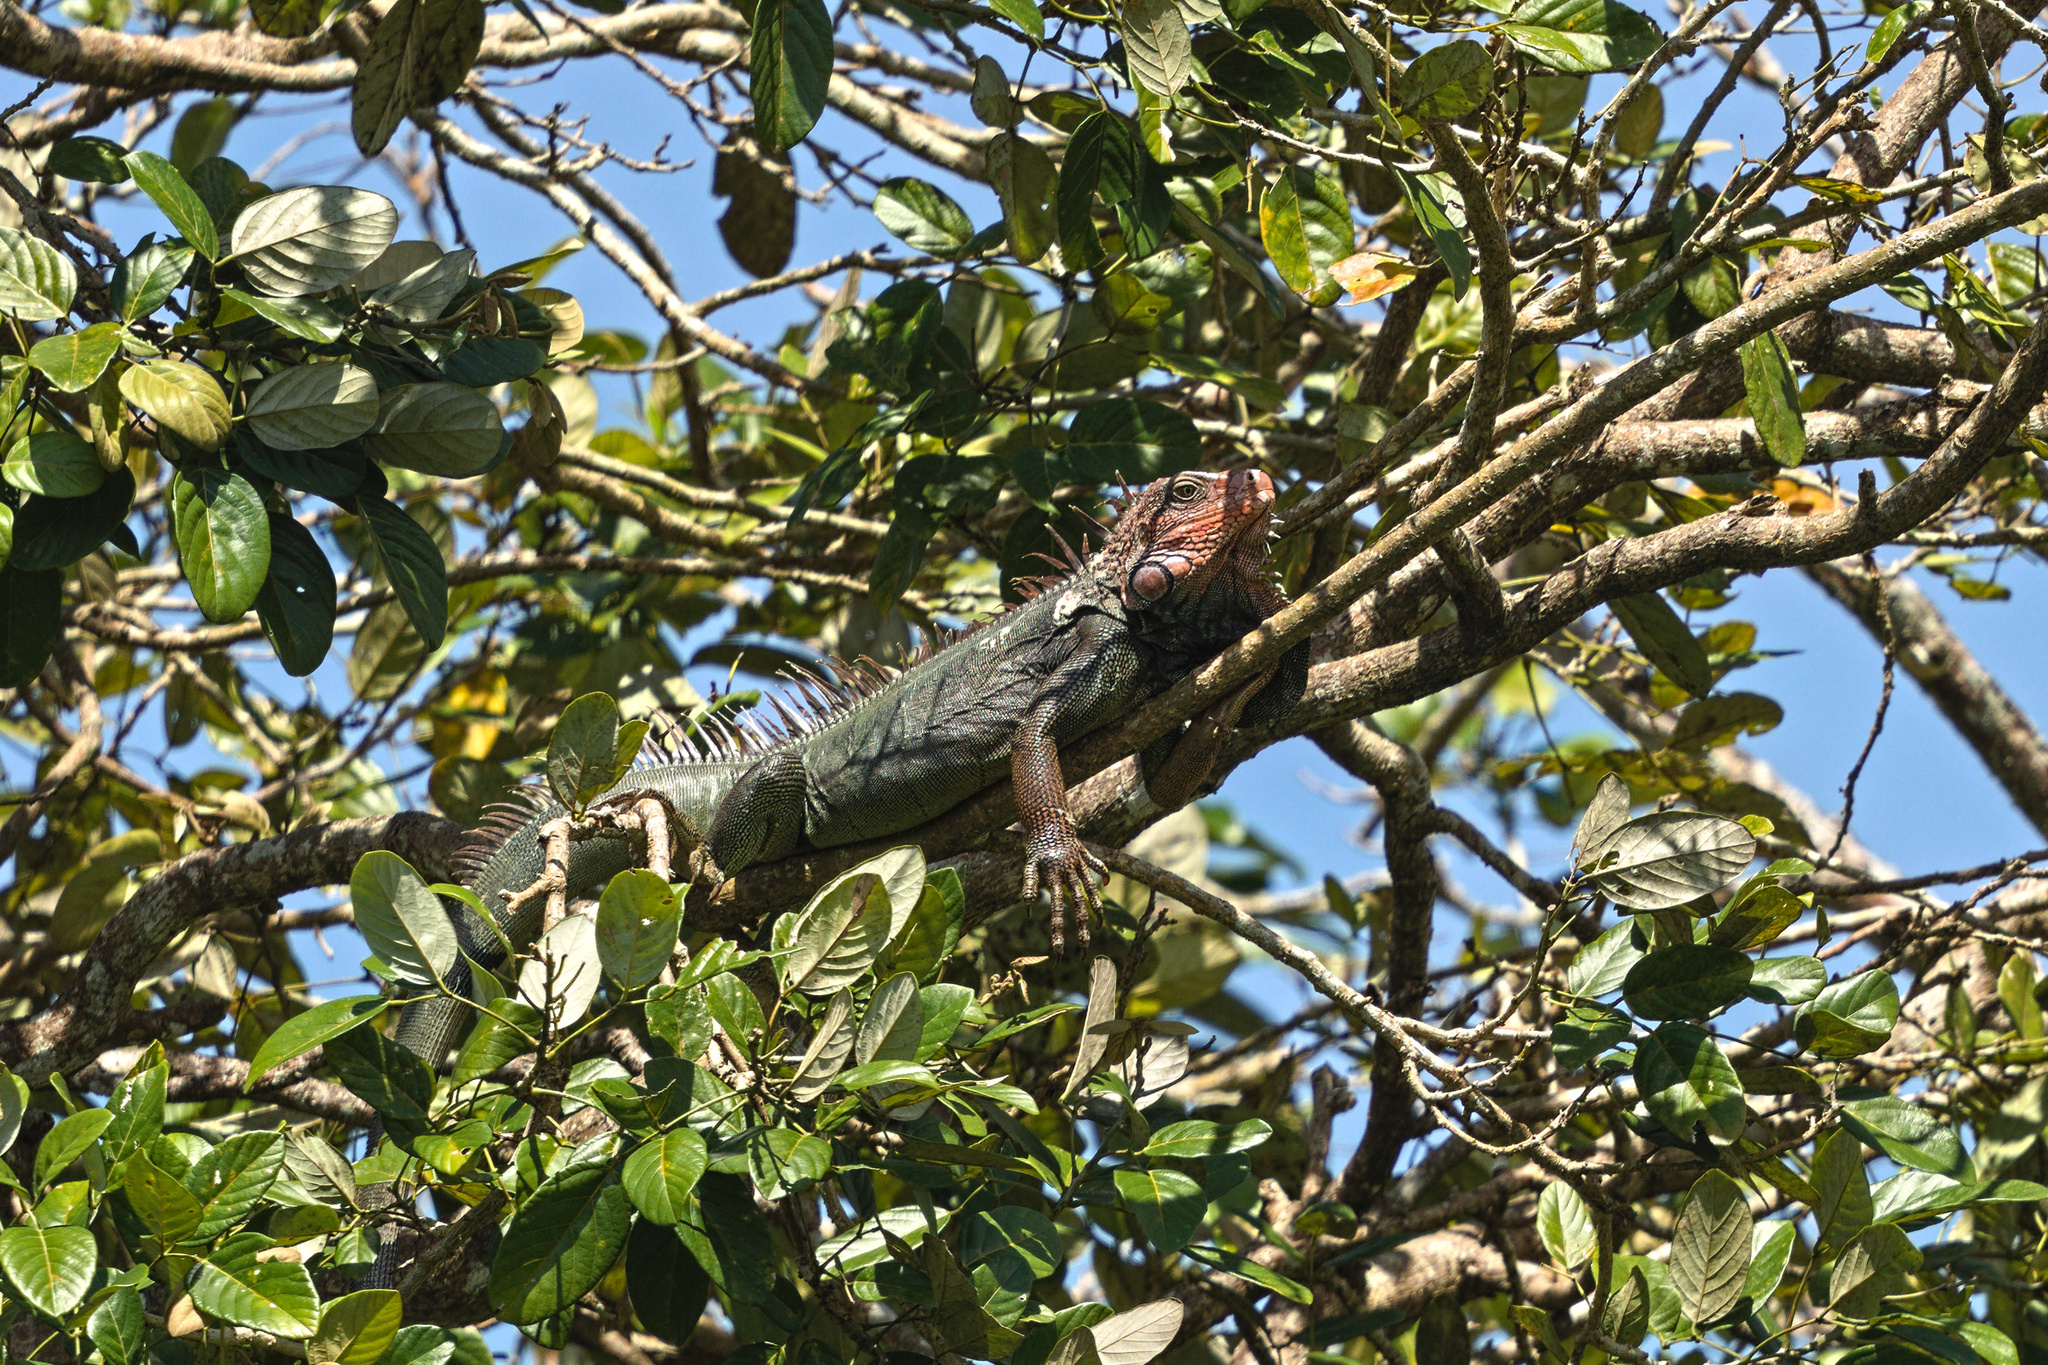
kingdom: Animalia
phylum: Chordata
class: Squamata
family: Iguanidae
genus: Iguana
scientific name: Iguana iguana
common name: Green iguana
